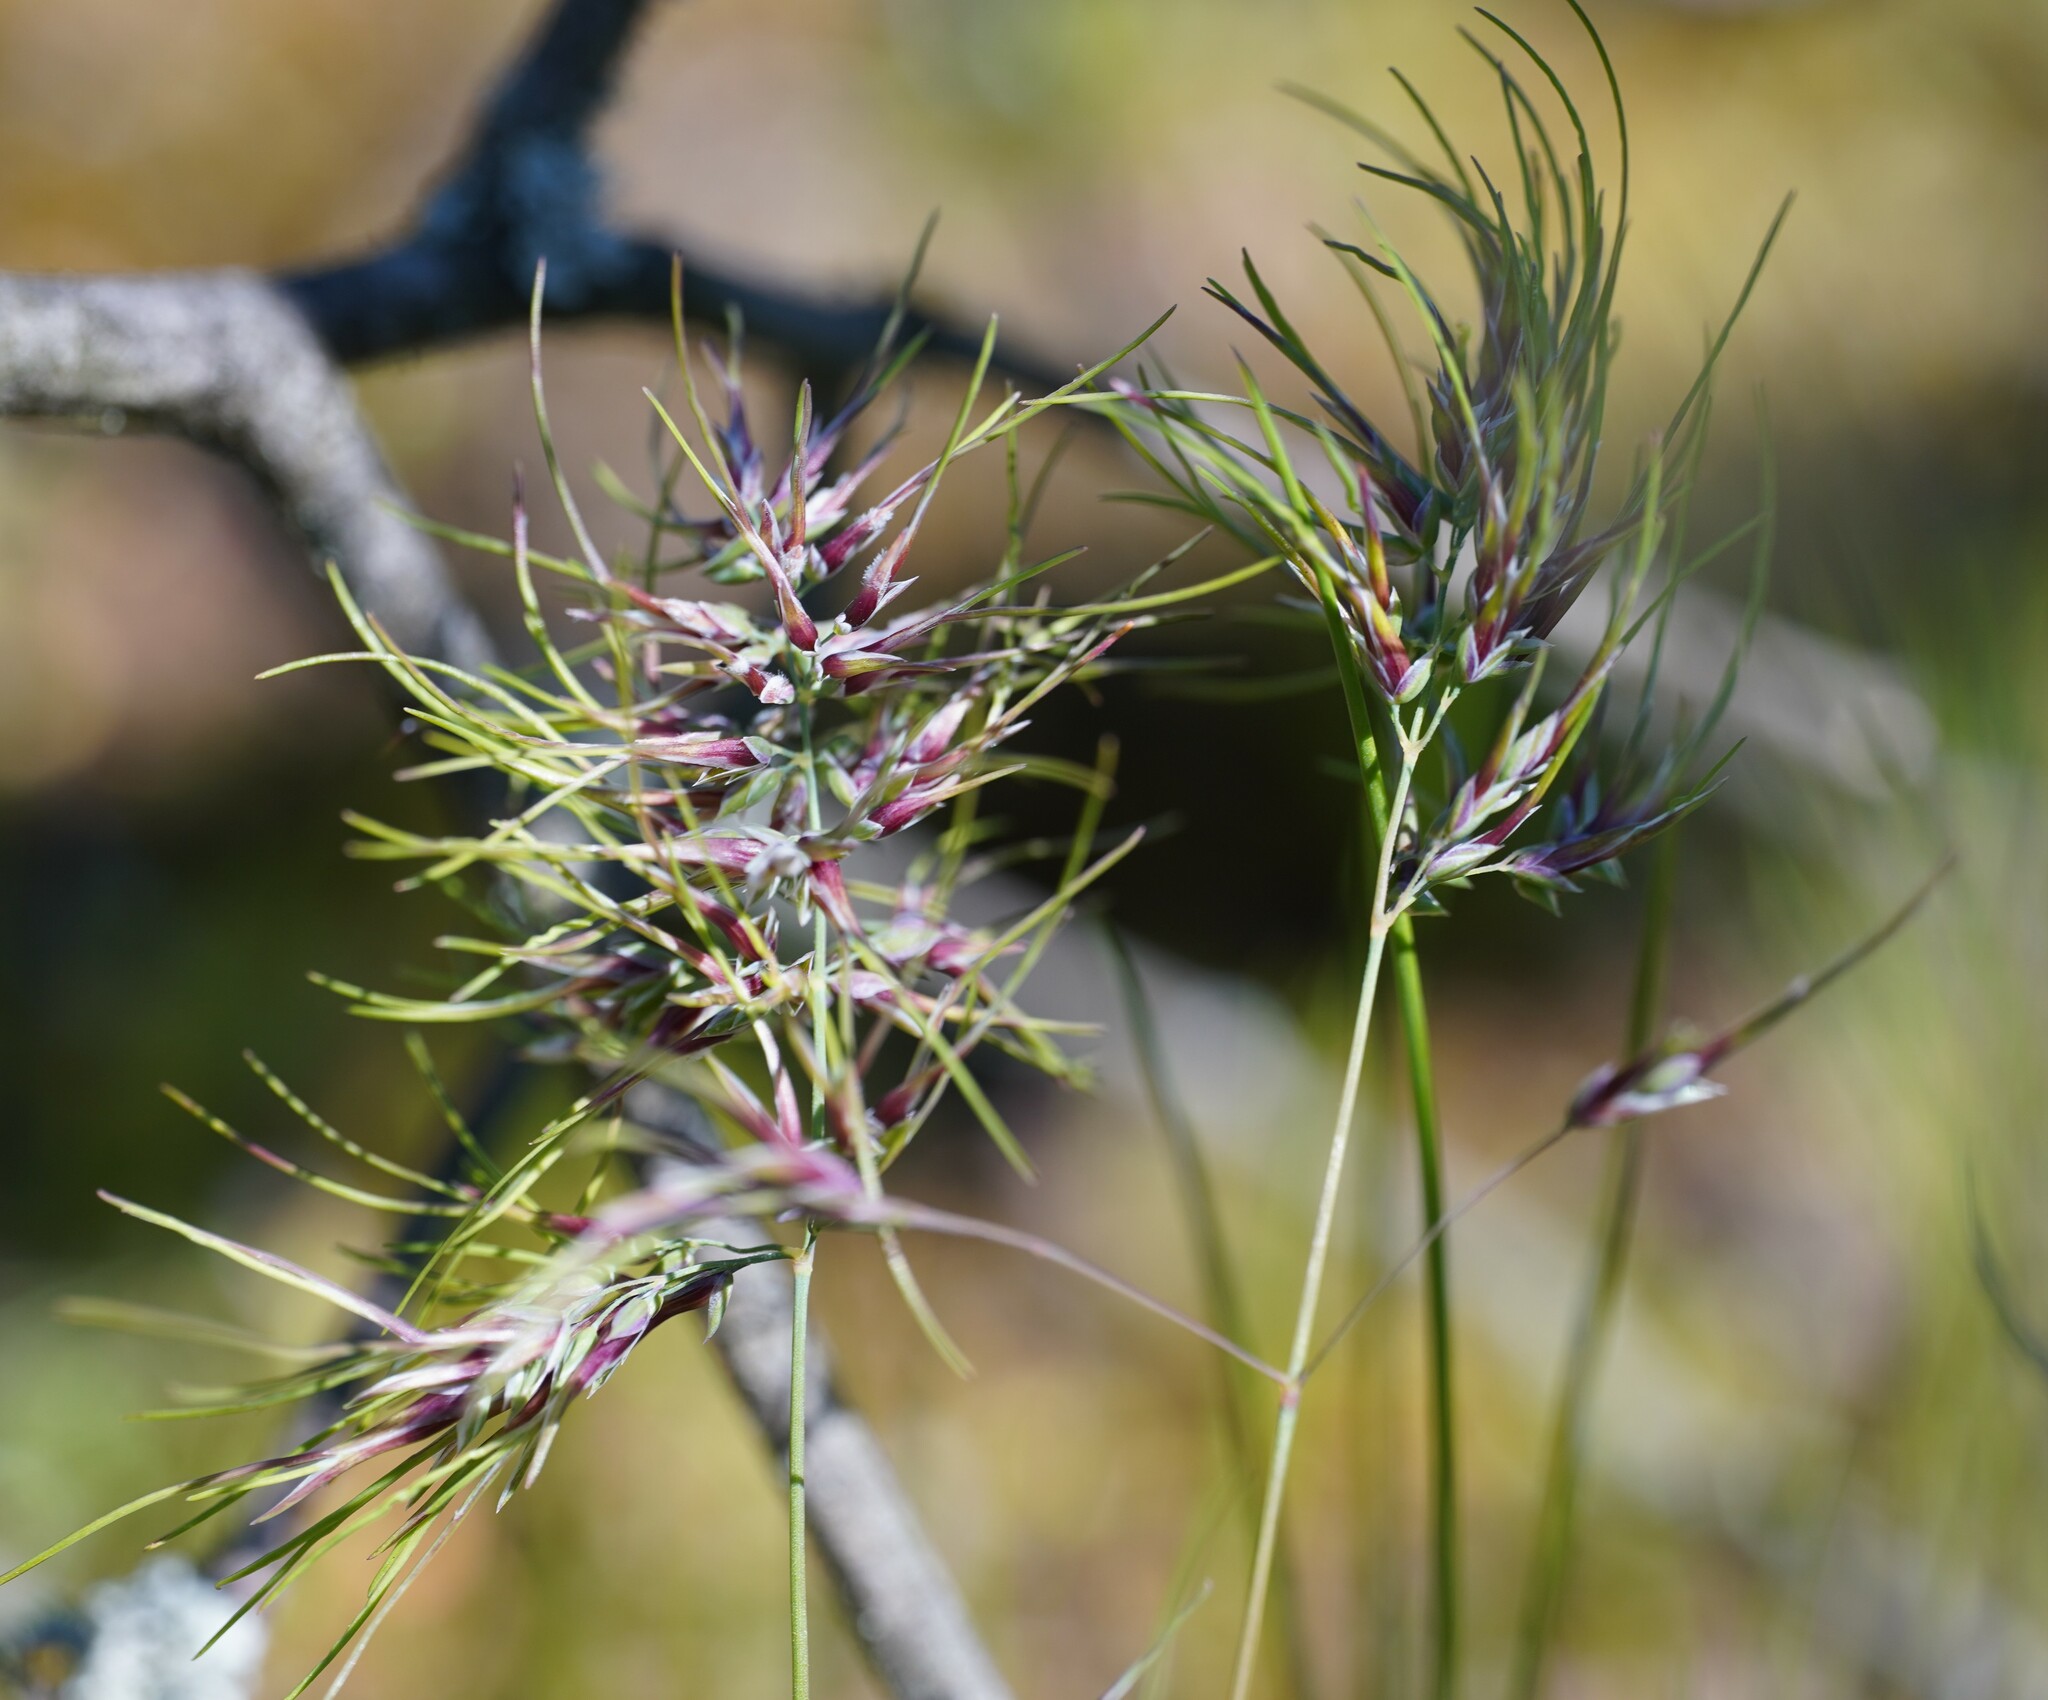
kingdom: Plantae
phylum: Tracheophyta
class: Liliopsida
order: Poales
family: Poaceae
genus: Poa
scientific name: Poa bulbosa
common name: Bulbous bluegrass
